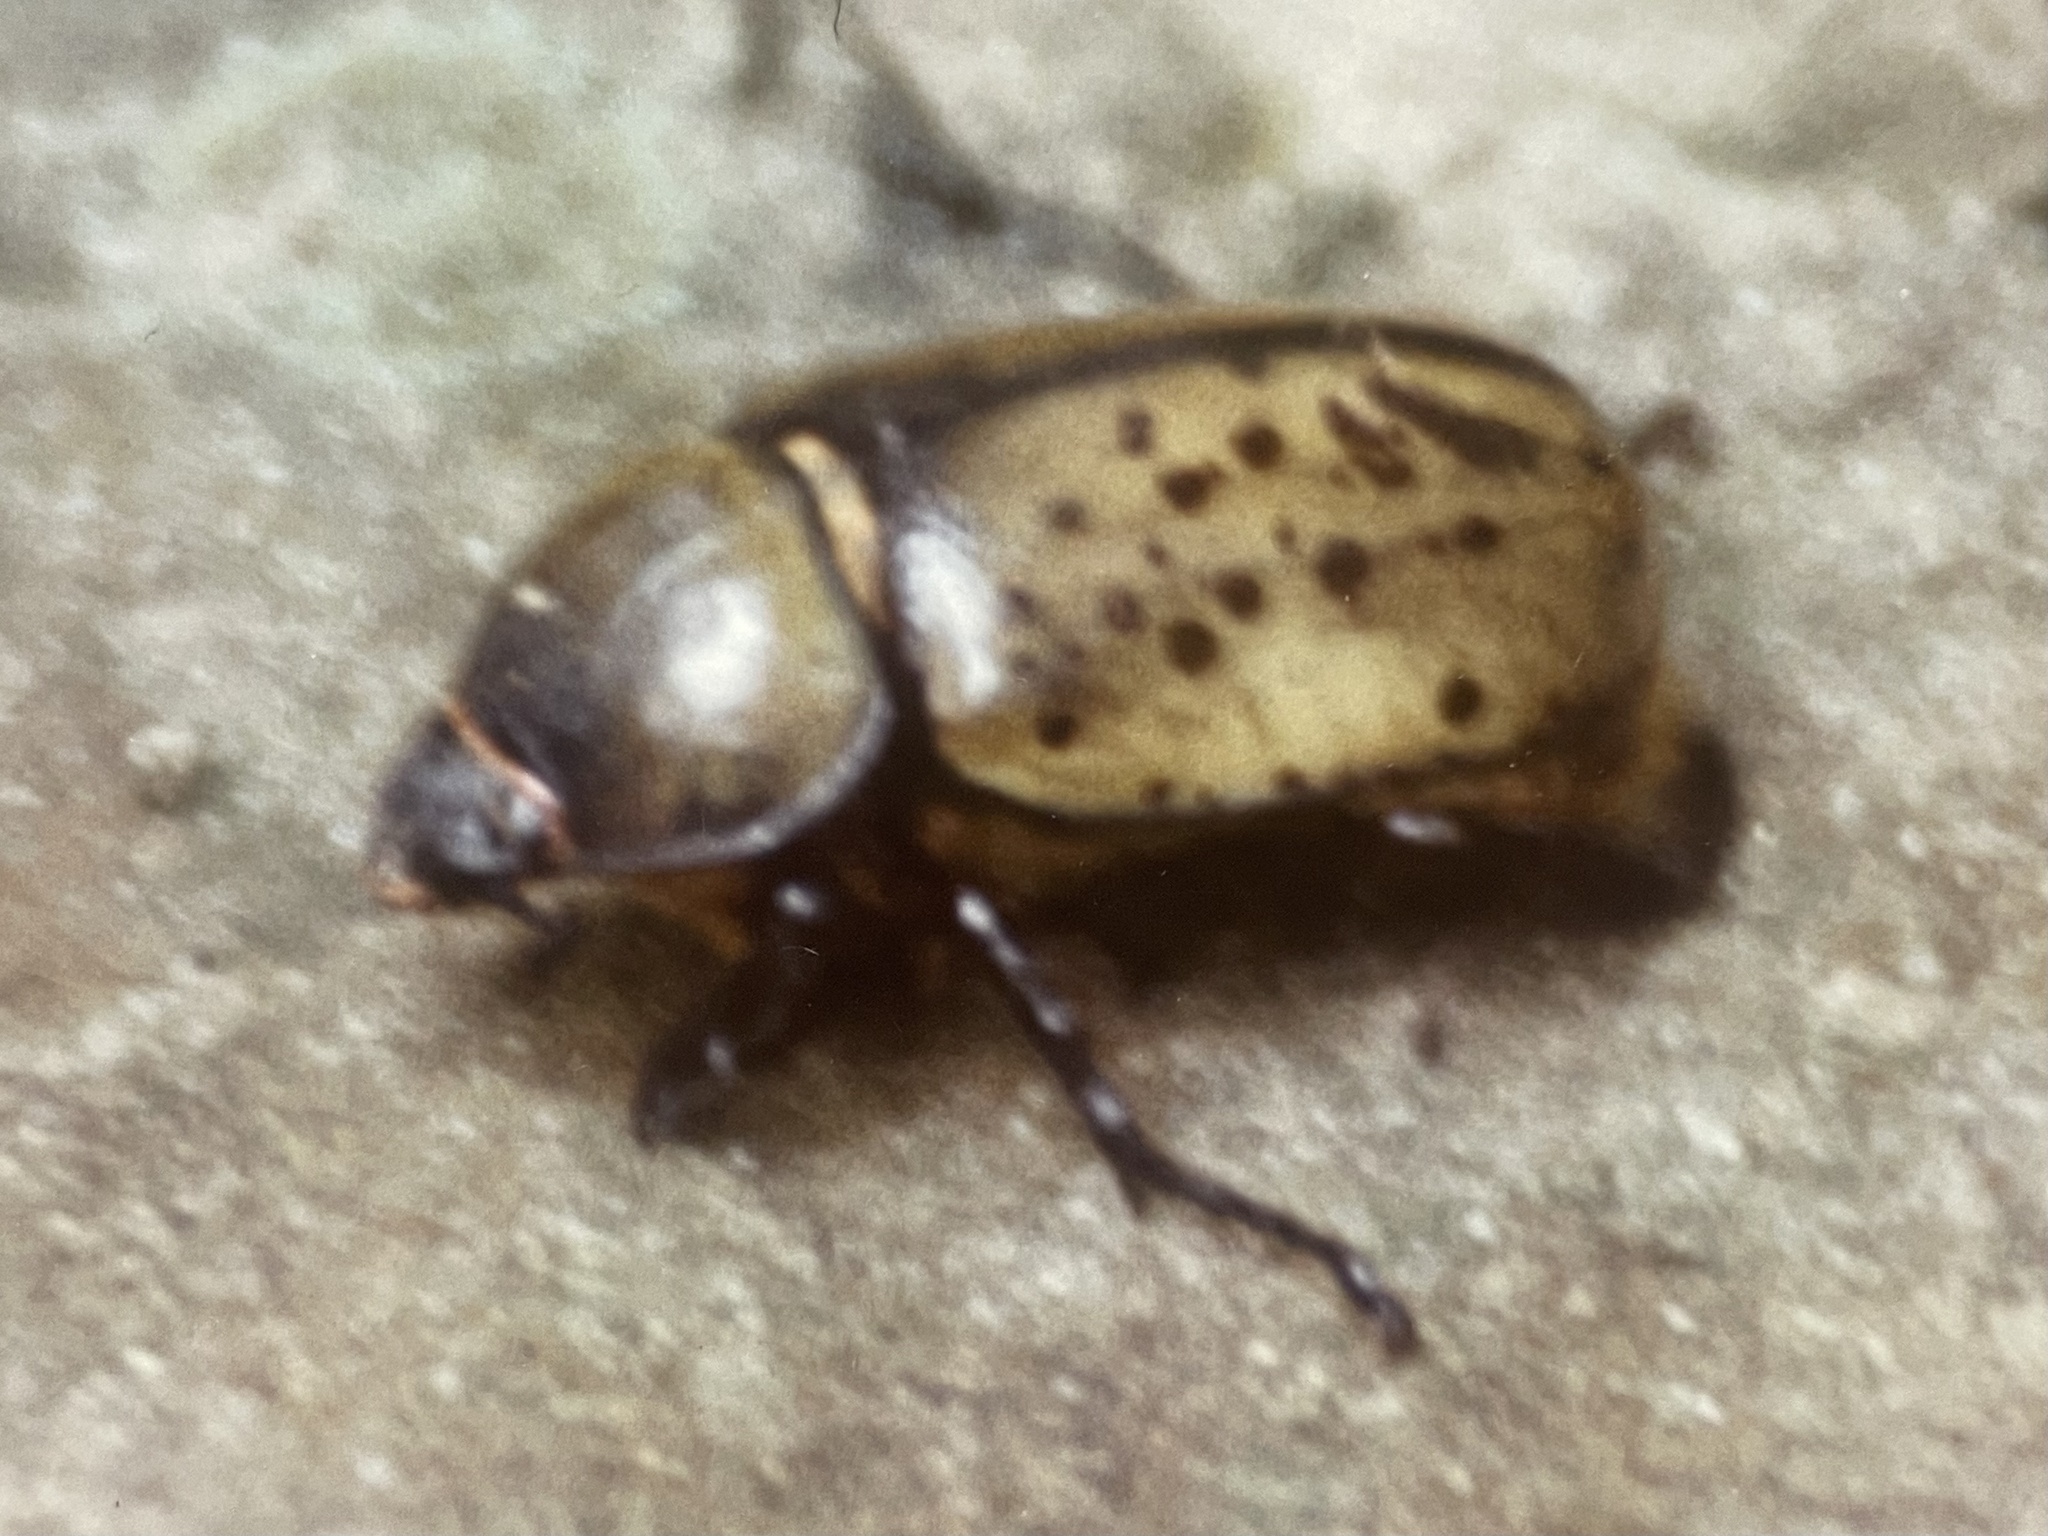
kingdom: Animalia
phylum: Arthropoda
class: Insecta
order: Coleoptera
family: Scarabaeidae
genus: Dynastes
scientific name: Dynastes tityus
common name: Eastern hercules beetle
